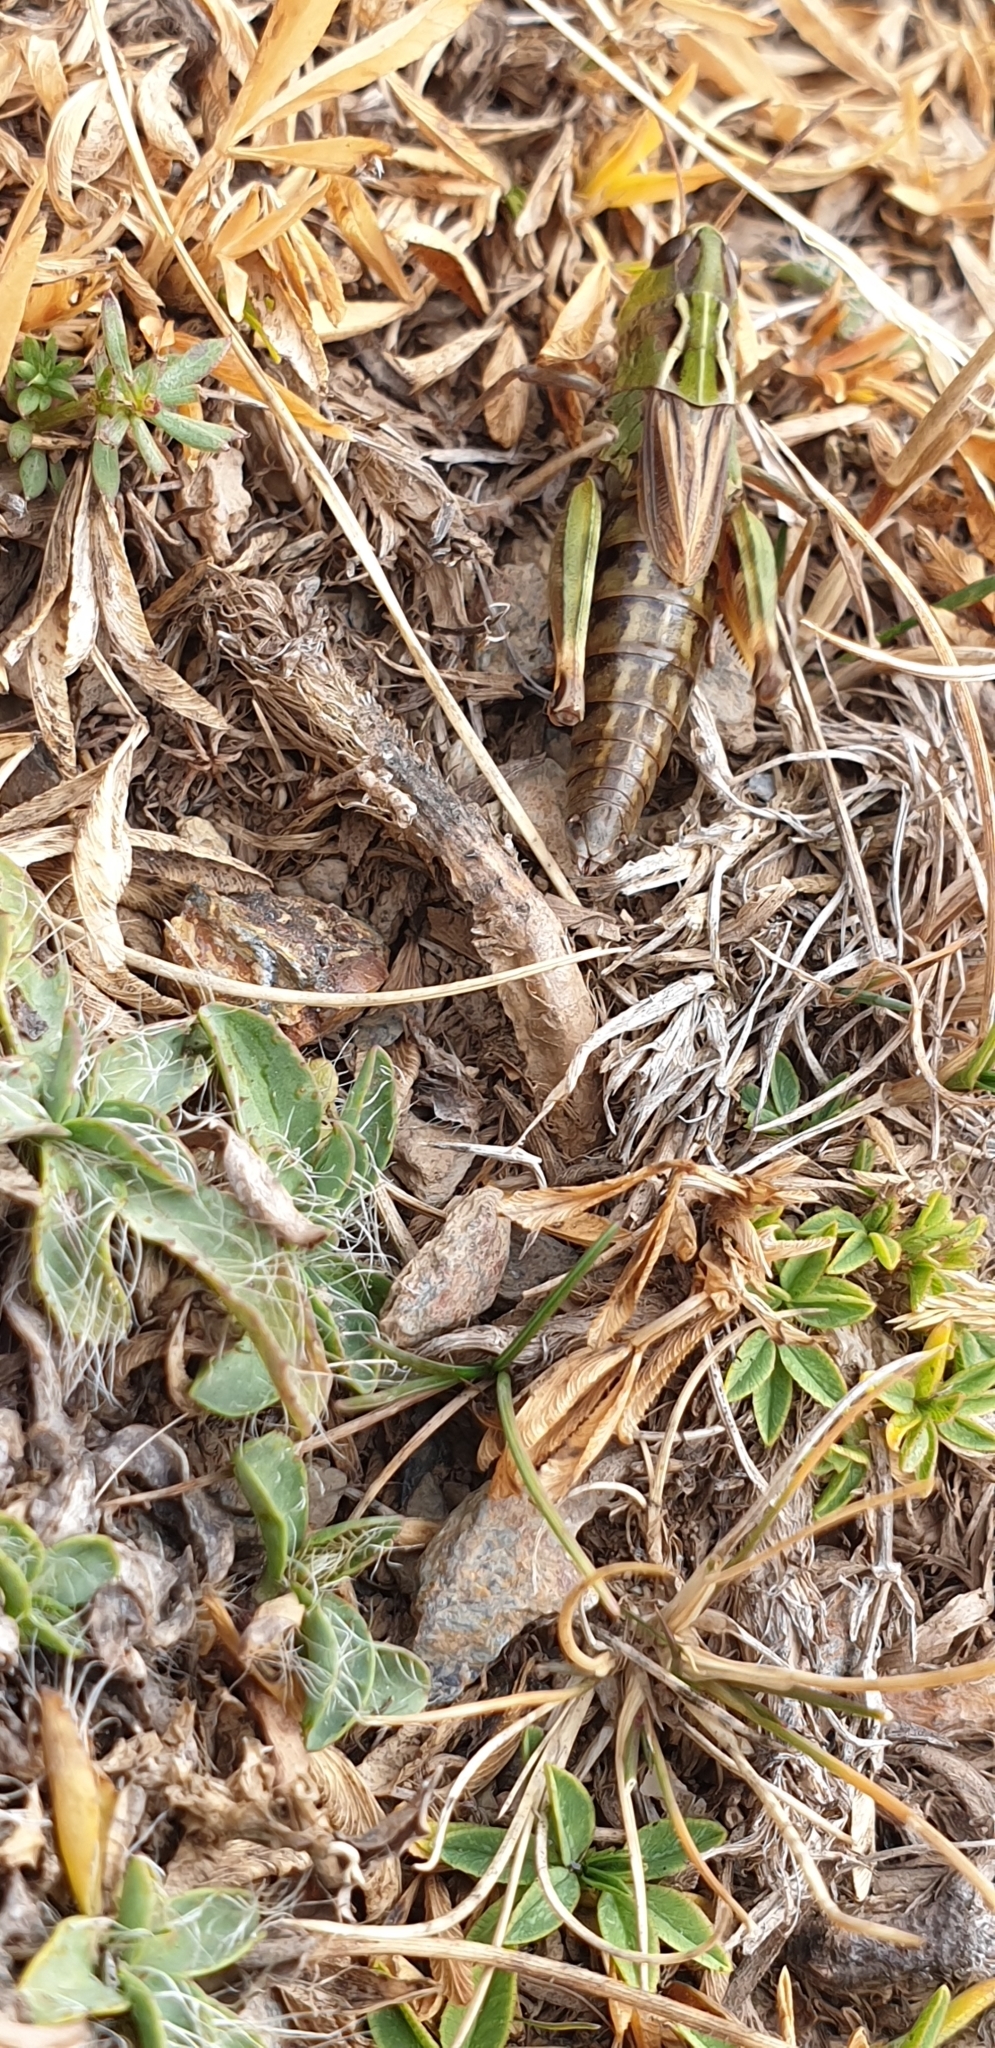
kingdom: Animalia
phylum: Arthropoda
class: Insecta
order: Orthoptera
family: Acrididae
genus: Omocestus
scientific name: Omocestus antigai
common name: Pyrenean grasshopper
